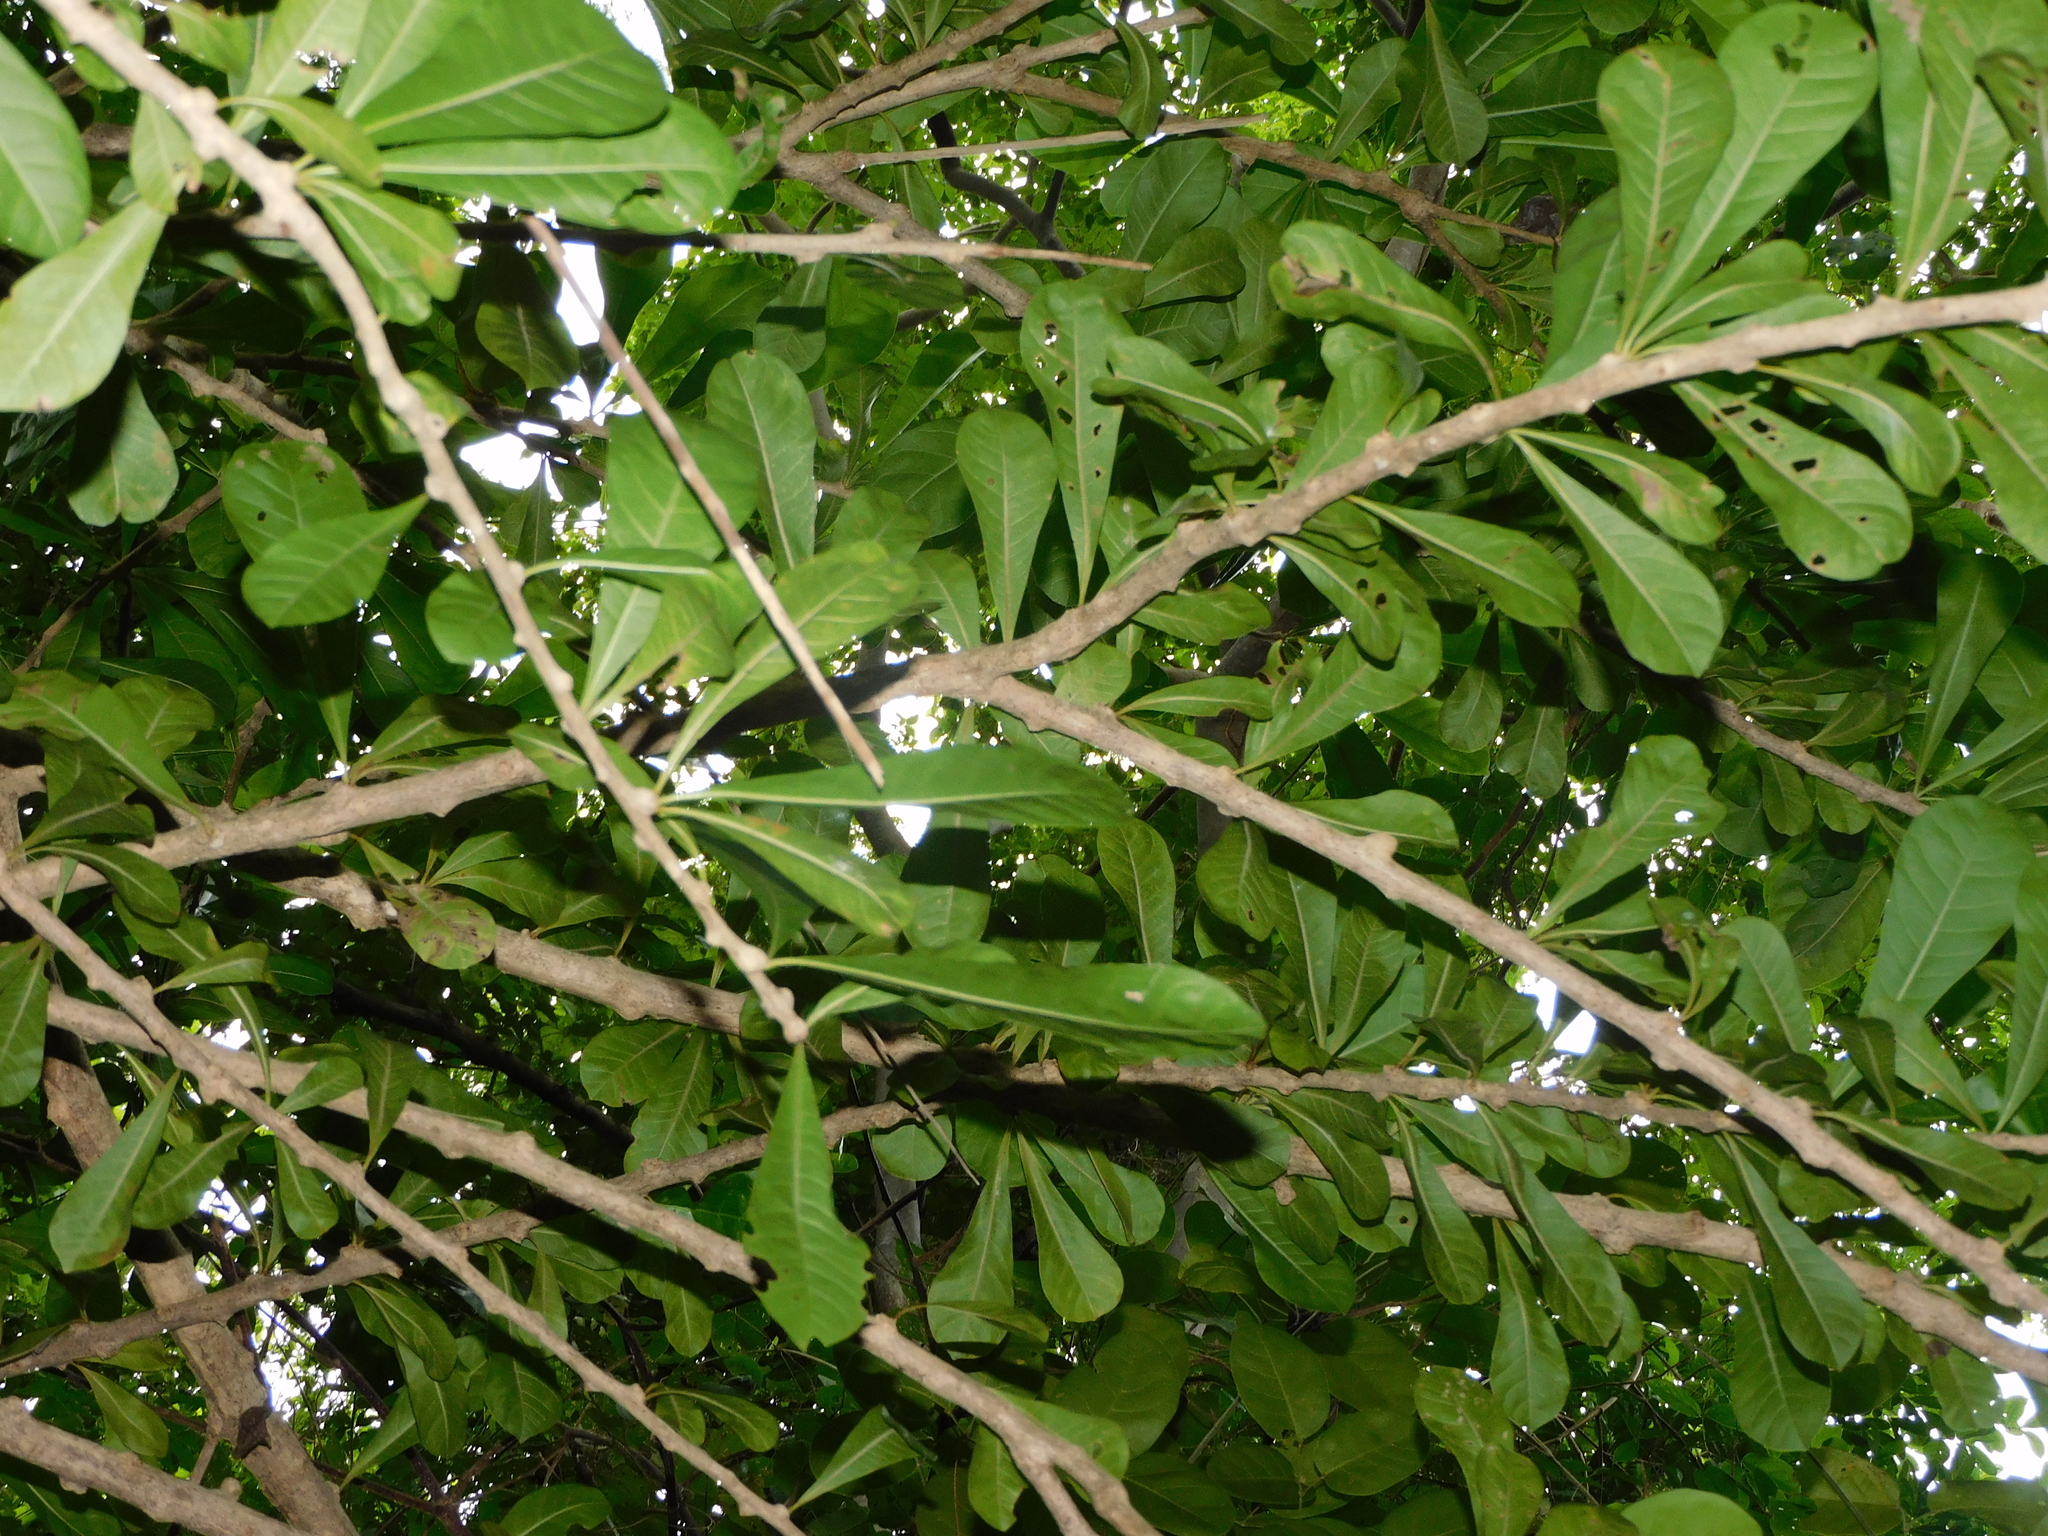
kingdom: Plantae
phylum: Tracheophyta
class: Magnoliopsida
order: Lamiales
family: Bignoniaceae
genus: Crescentia
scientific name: Crescentia cujete
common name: Calabash
